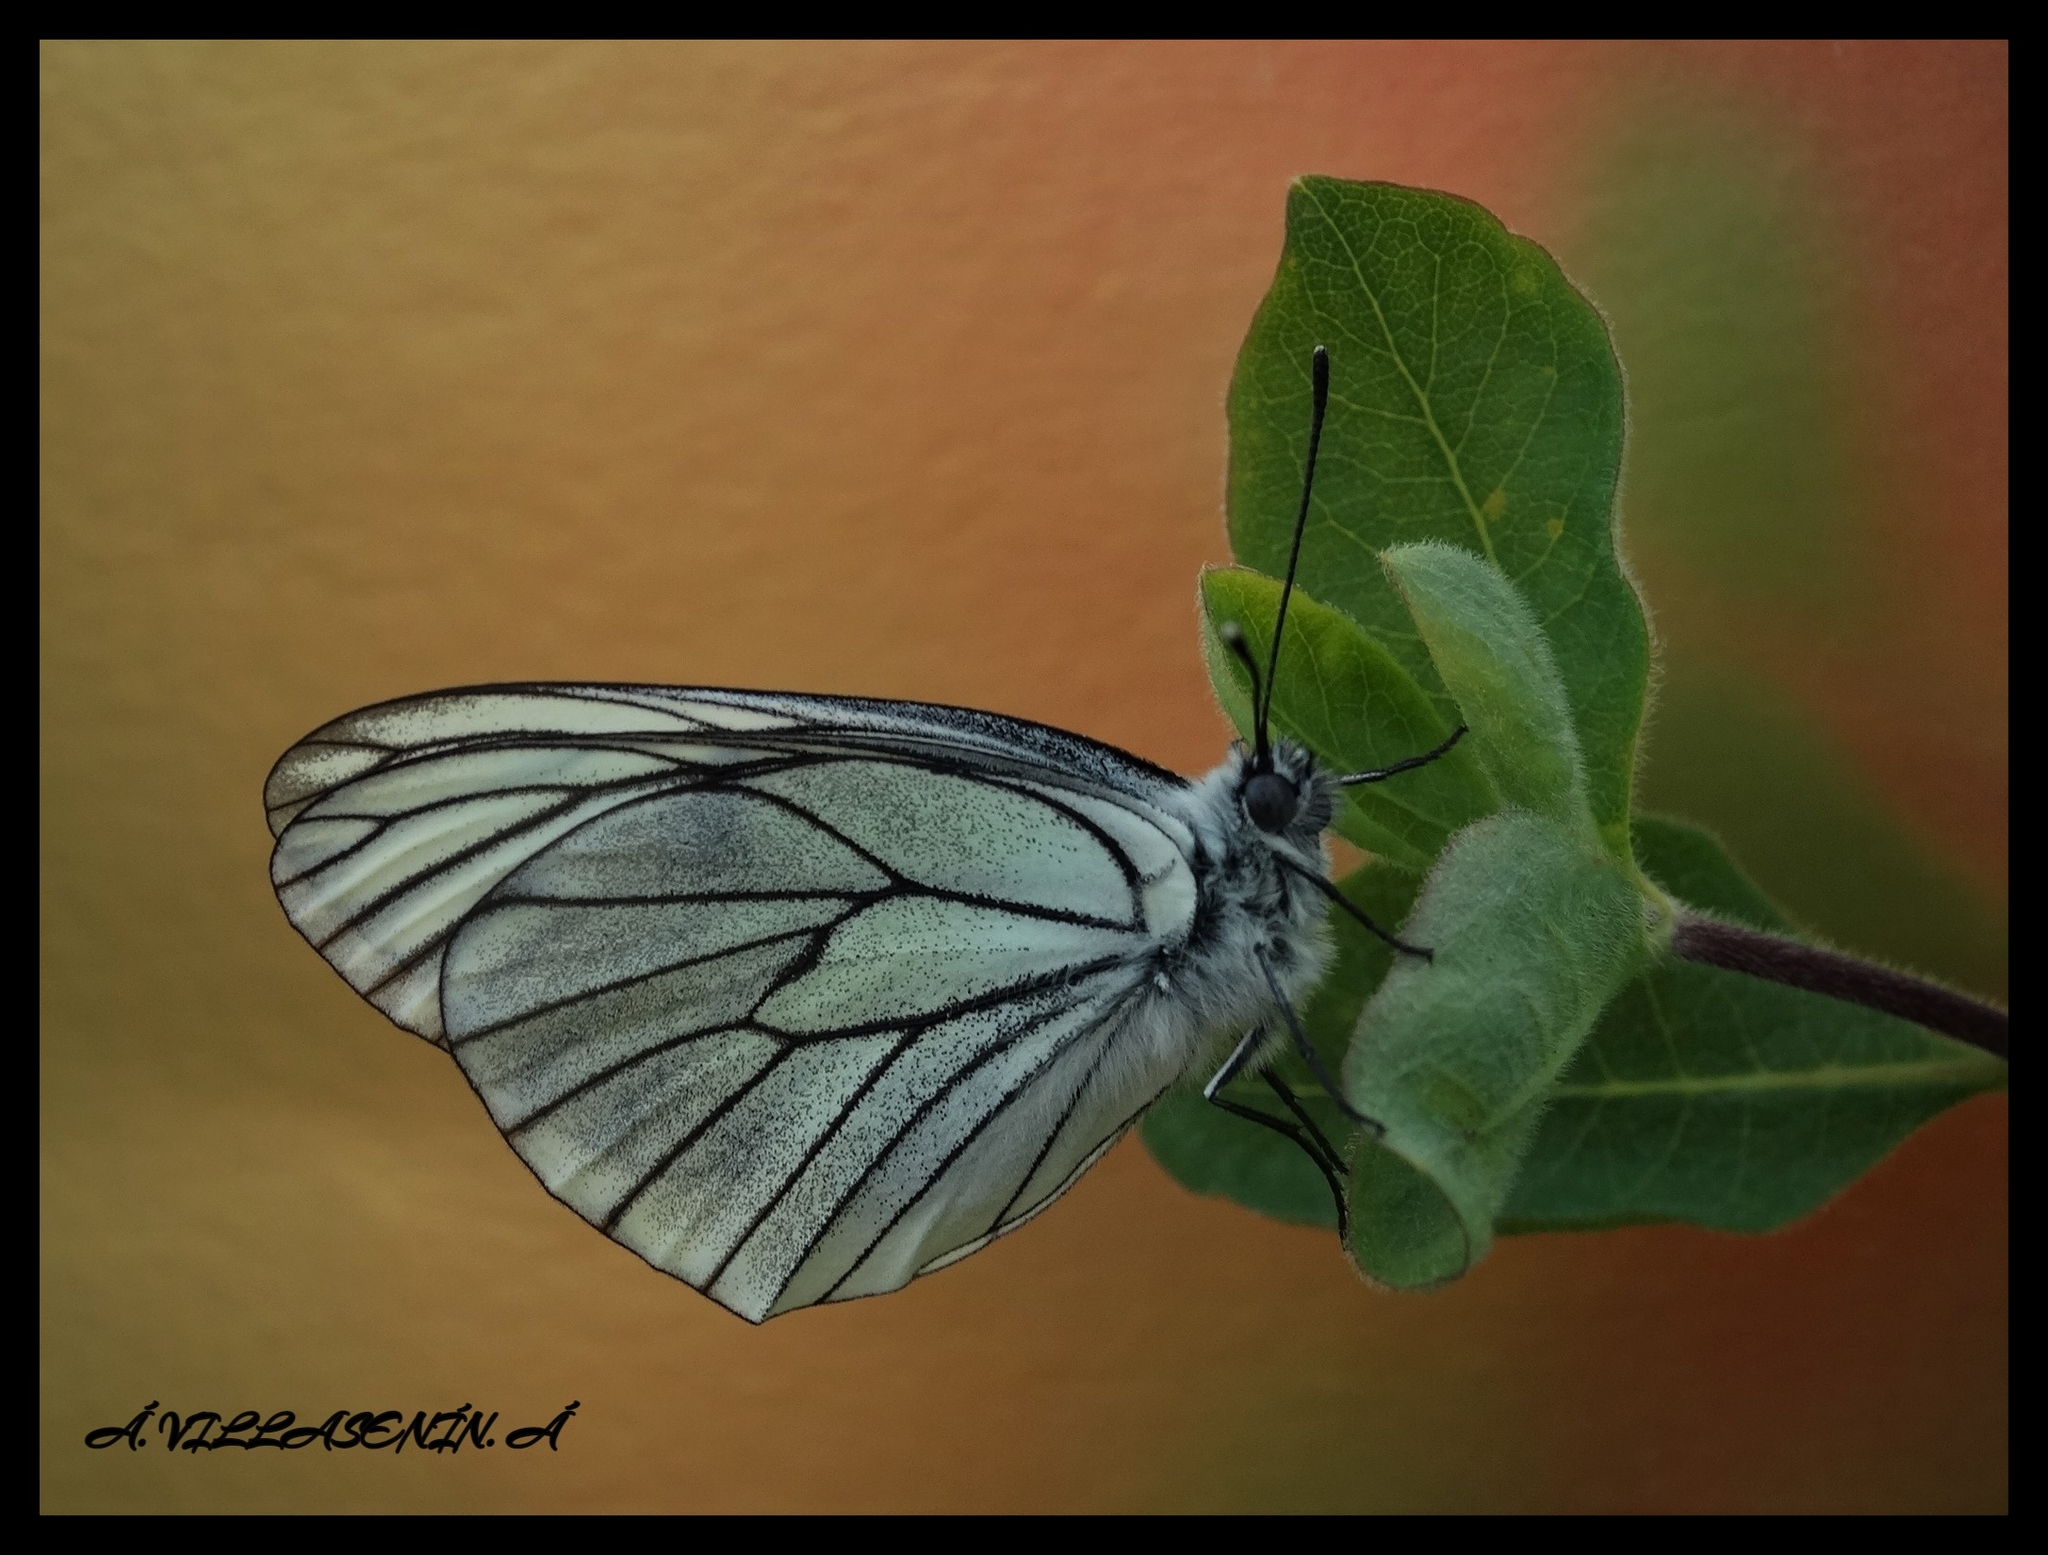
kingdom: Animalia
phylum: Arthropoda
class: Insecta
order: Lepidoptera
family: Pieridae
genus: Aporia
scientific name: Aporia crataegi
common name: Black-veined white
